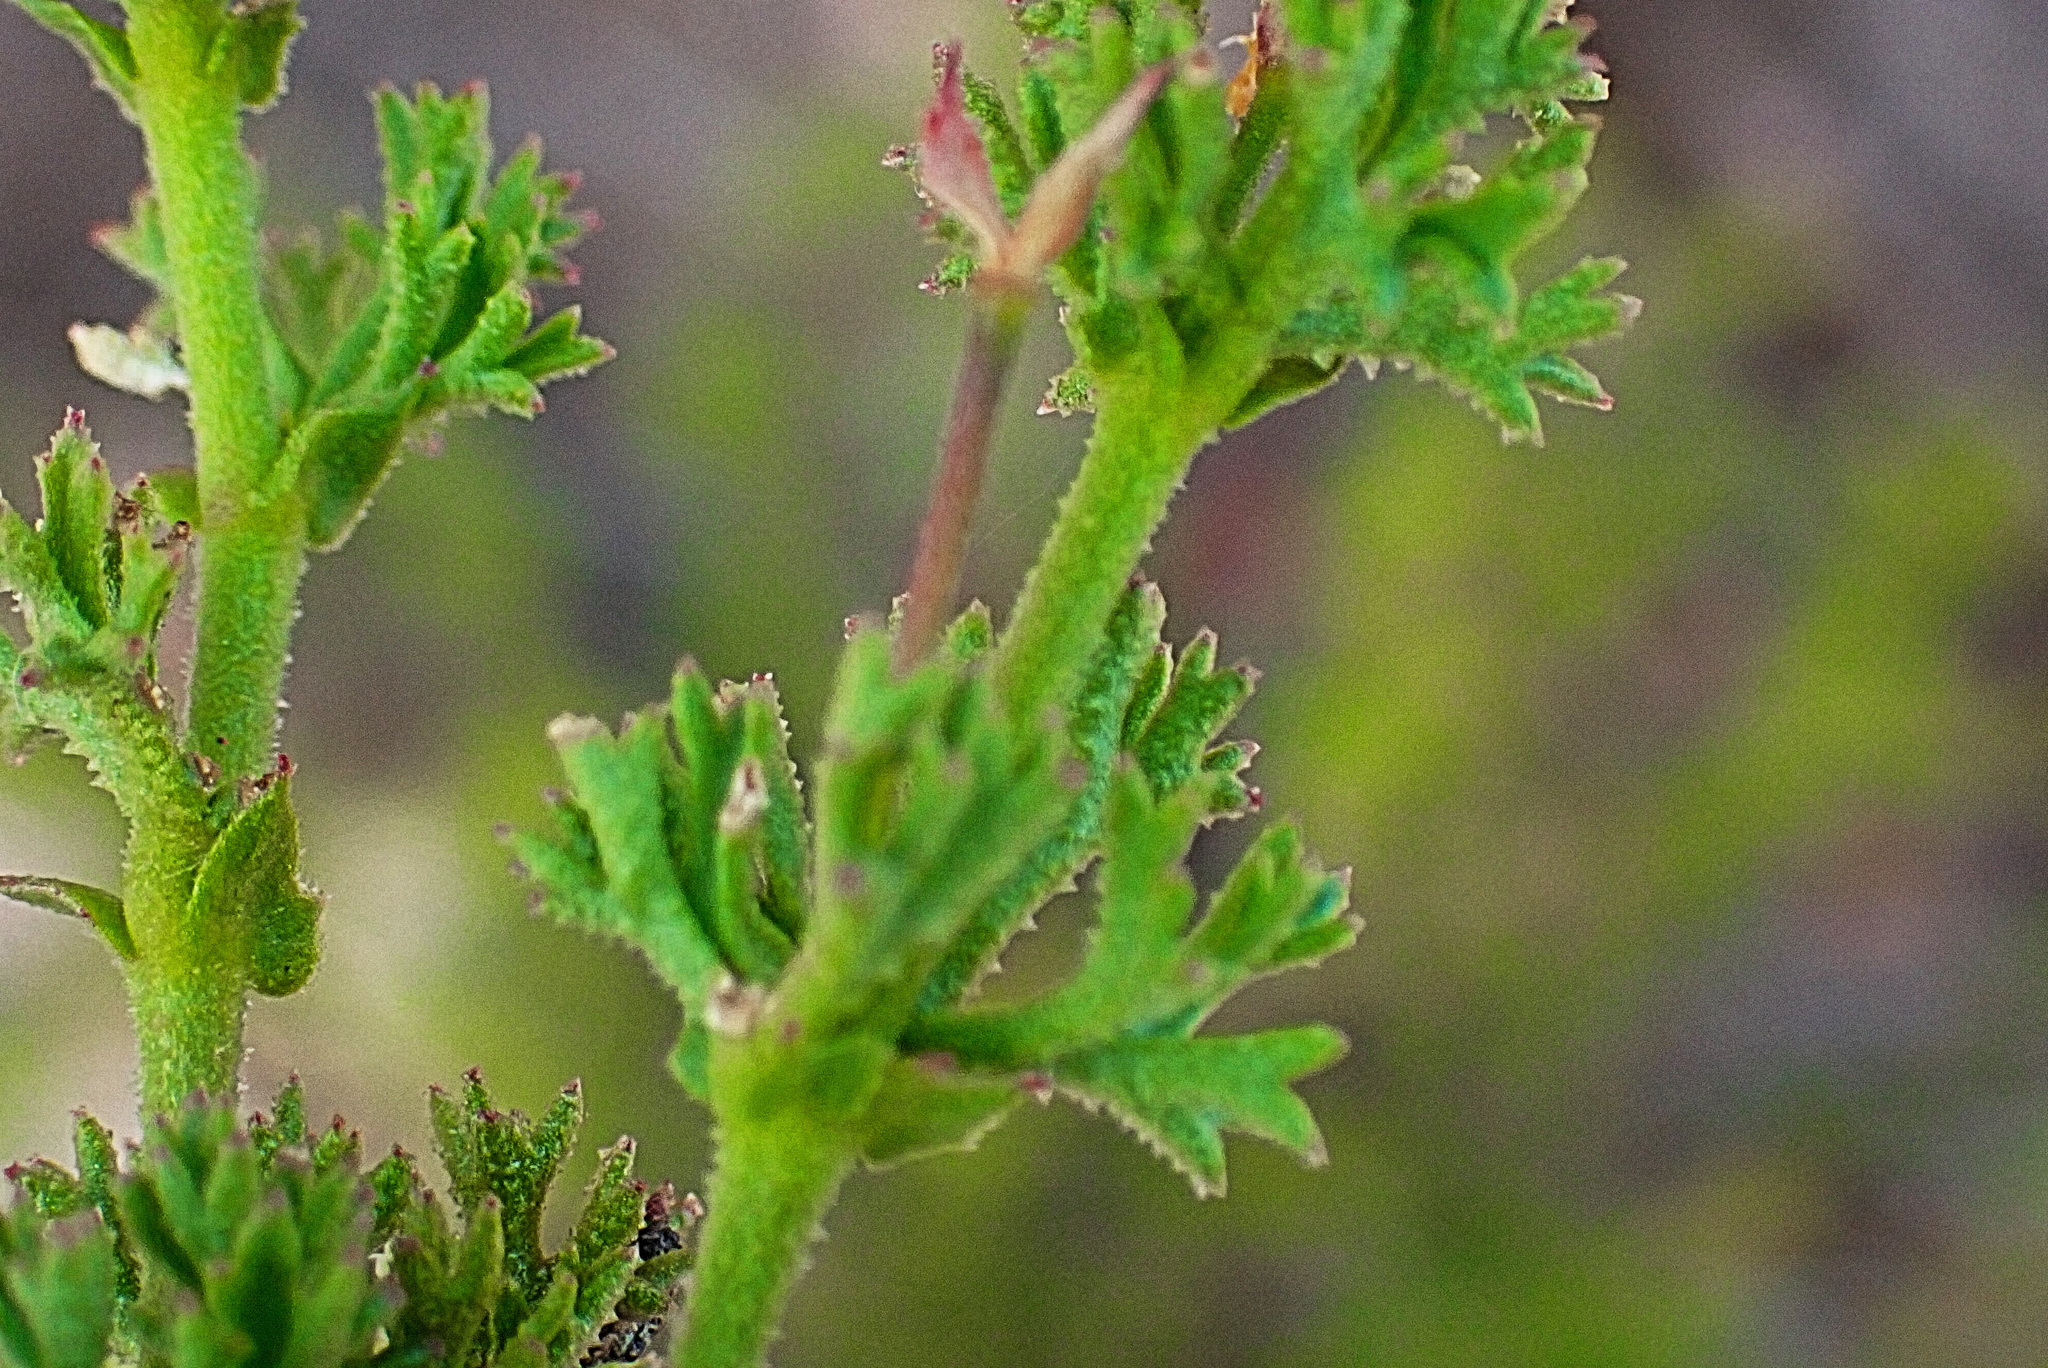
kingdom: Plantae
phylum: Tracheophyta
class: Magnoliopsida
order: Geraniales
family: Geraniaceae
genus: Pelargonium
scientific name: Pelargonium fruticosum
